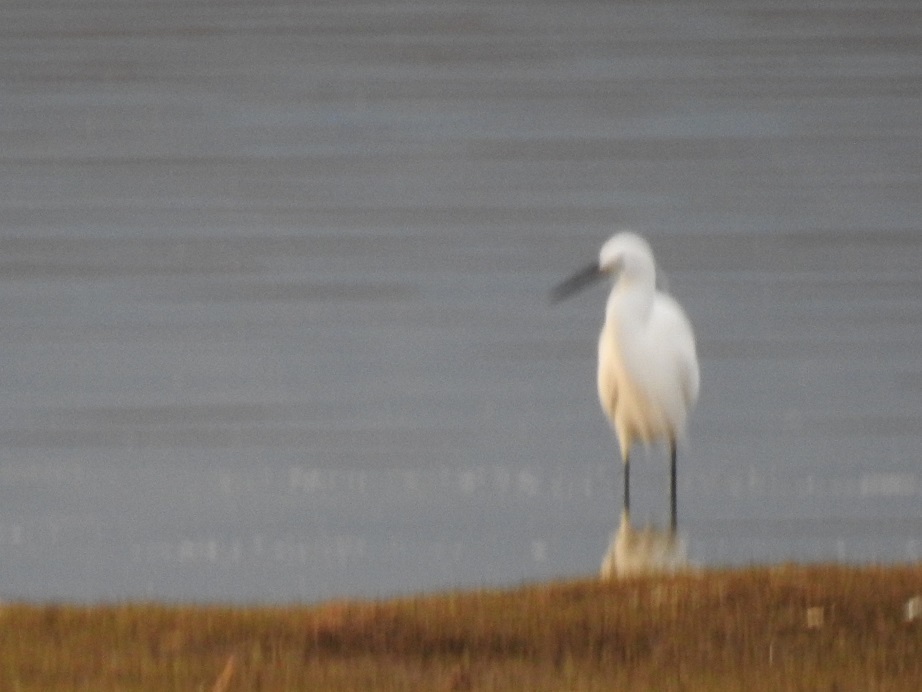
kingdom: Animalia
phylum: Chordata
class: Aves
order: Pelecaniformes
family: Ardeidae
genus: Egretta
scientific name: Egretta garzetta
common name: Little egret
